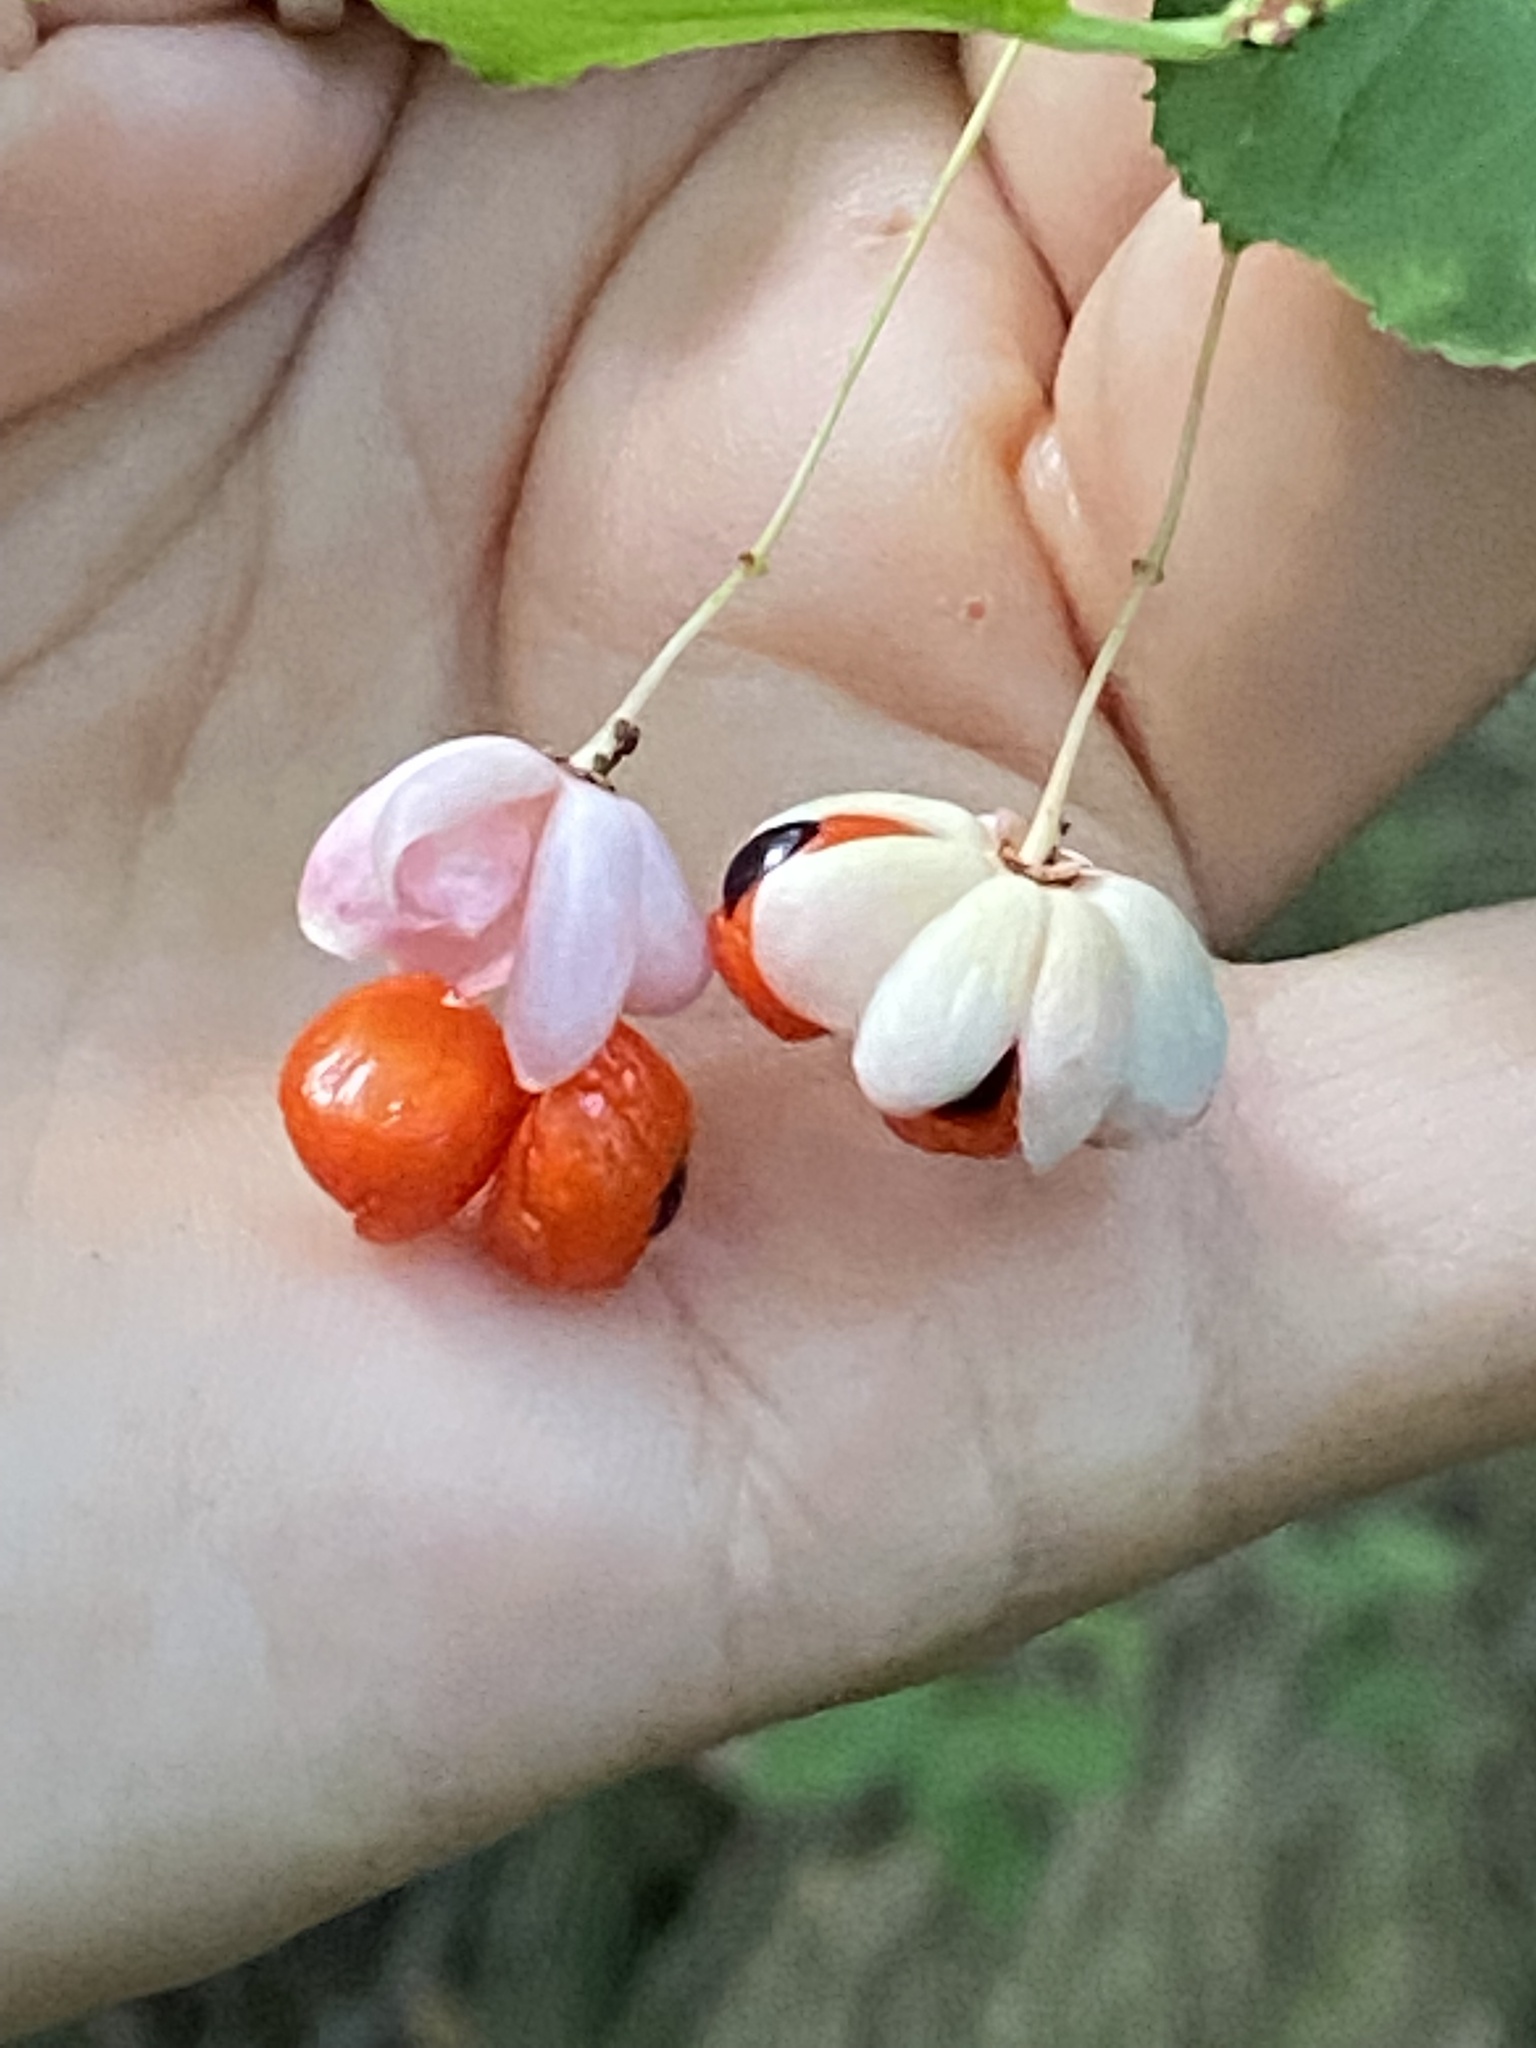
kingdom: Plantae
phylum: Tracheophyta
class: Magnoliopsida
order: Celastrales
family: Celastraceae
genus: Euonymus
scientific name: Euonymus verrucosus
